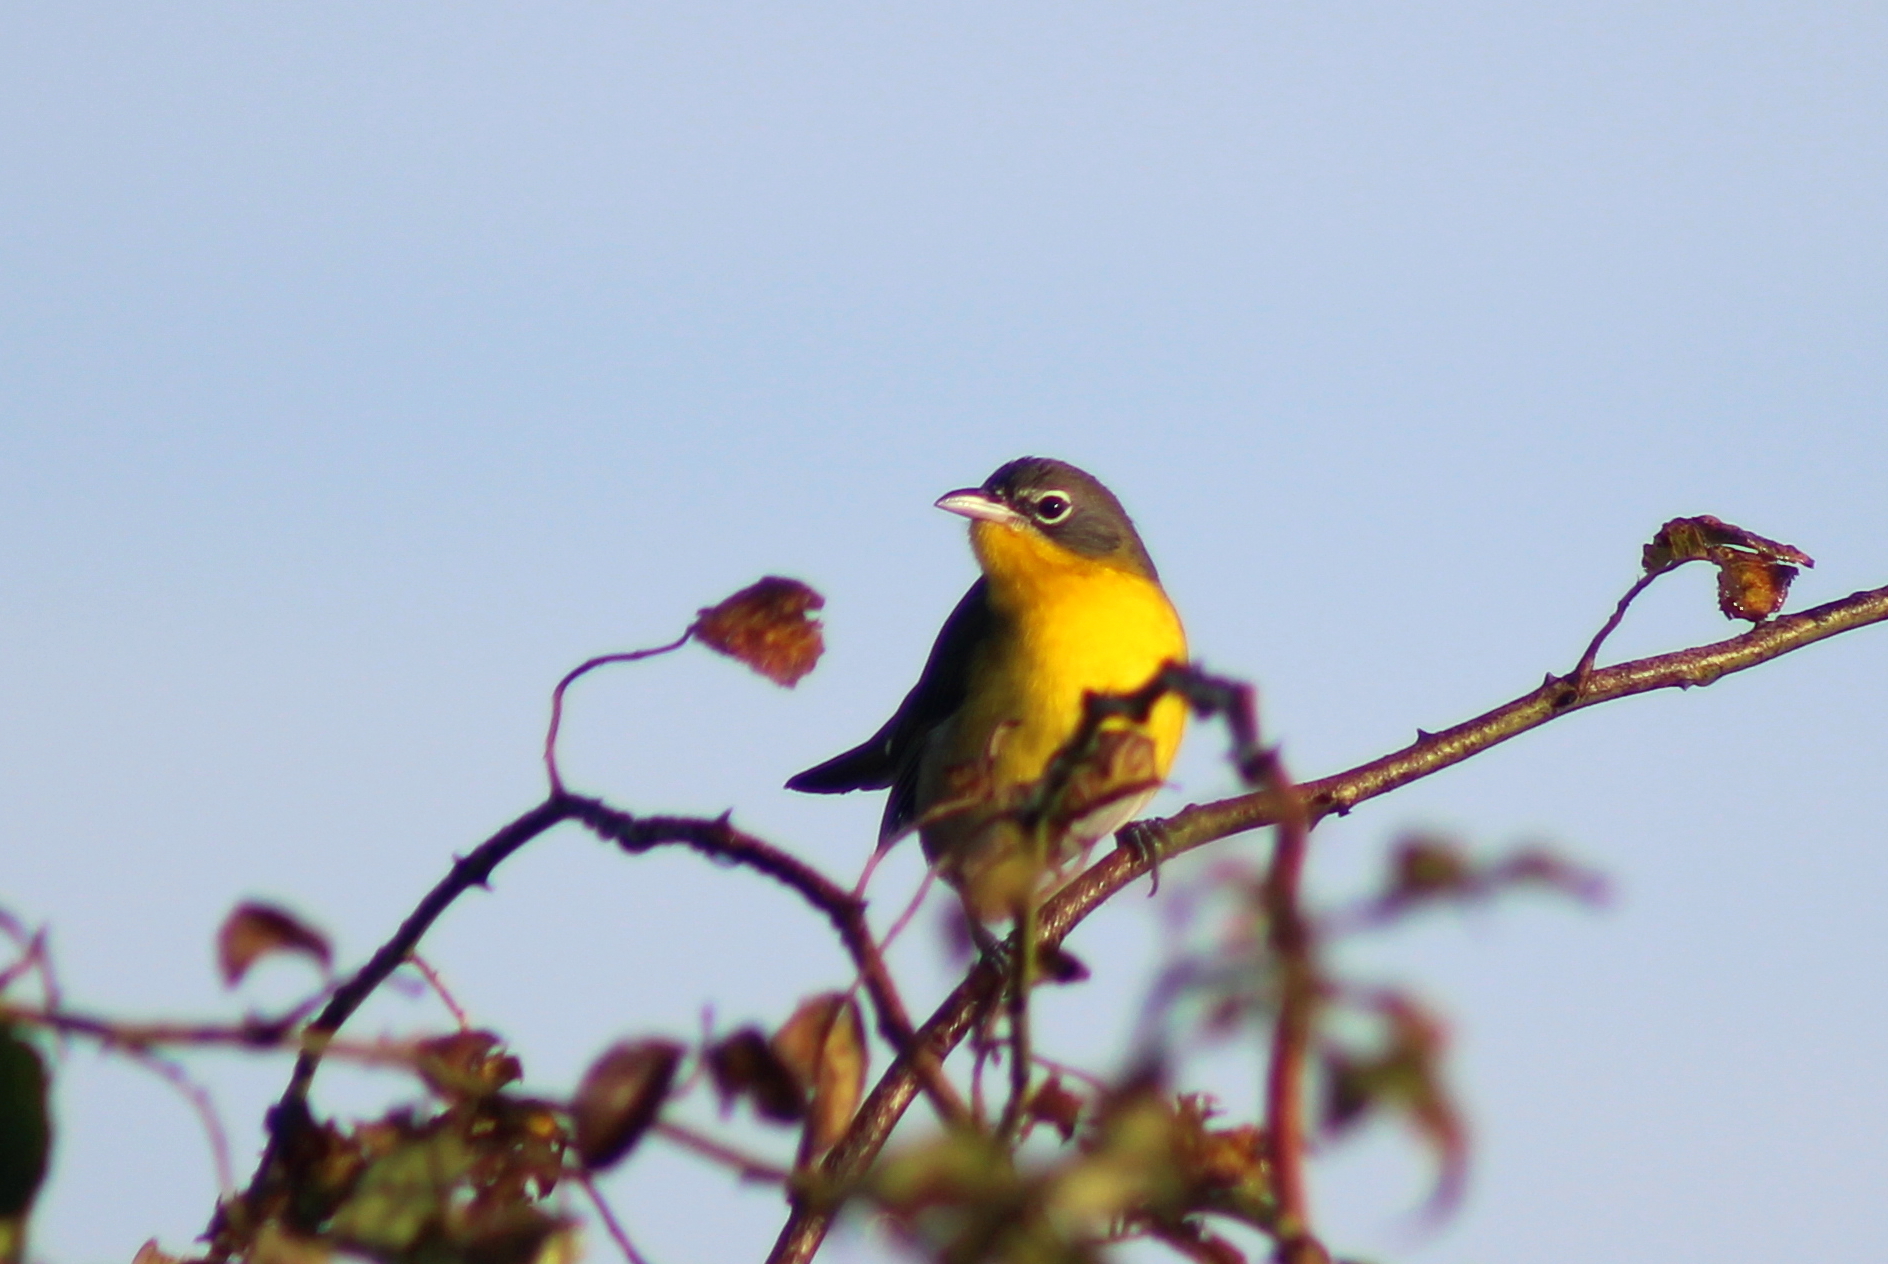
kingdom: Animalia
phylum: Chordata
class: Aves
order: Passeriformes
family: Parulidae
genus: Icteria
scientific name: Icteria virens
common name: Yellow-breasted chat
